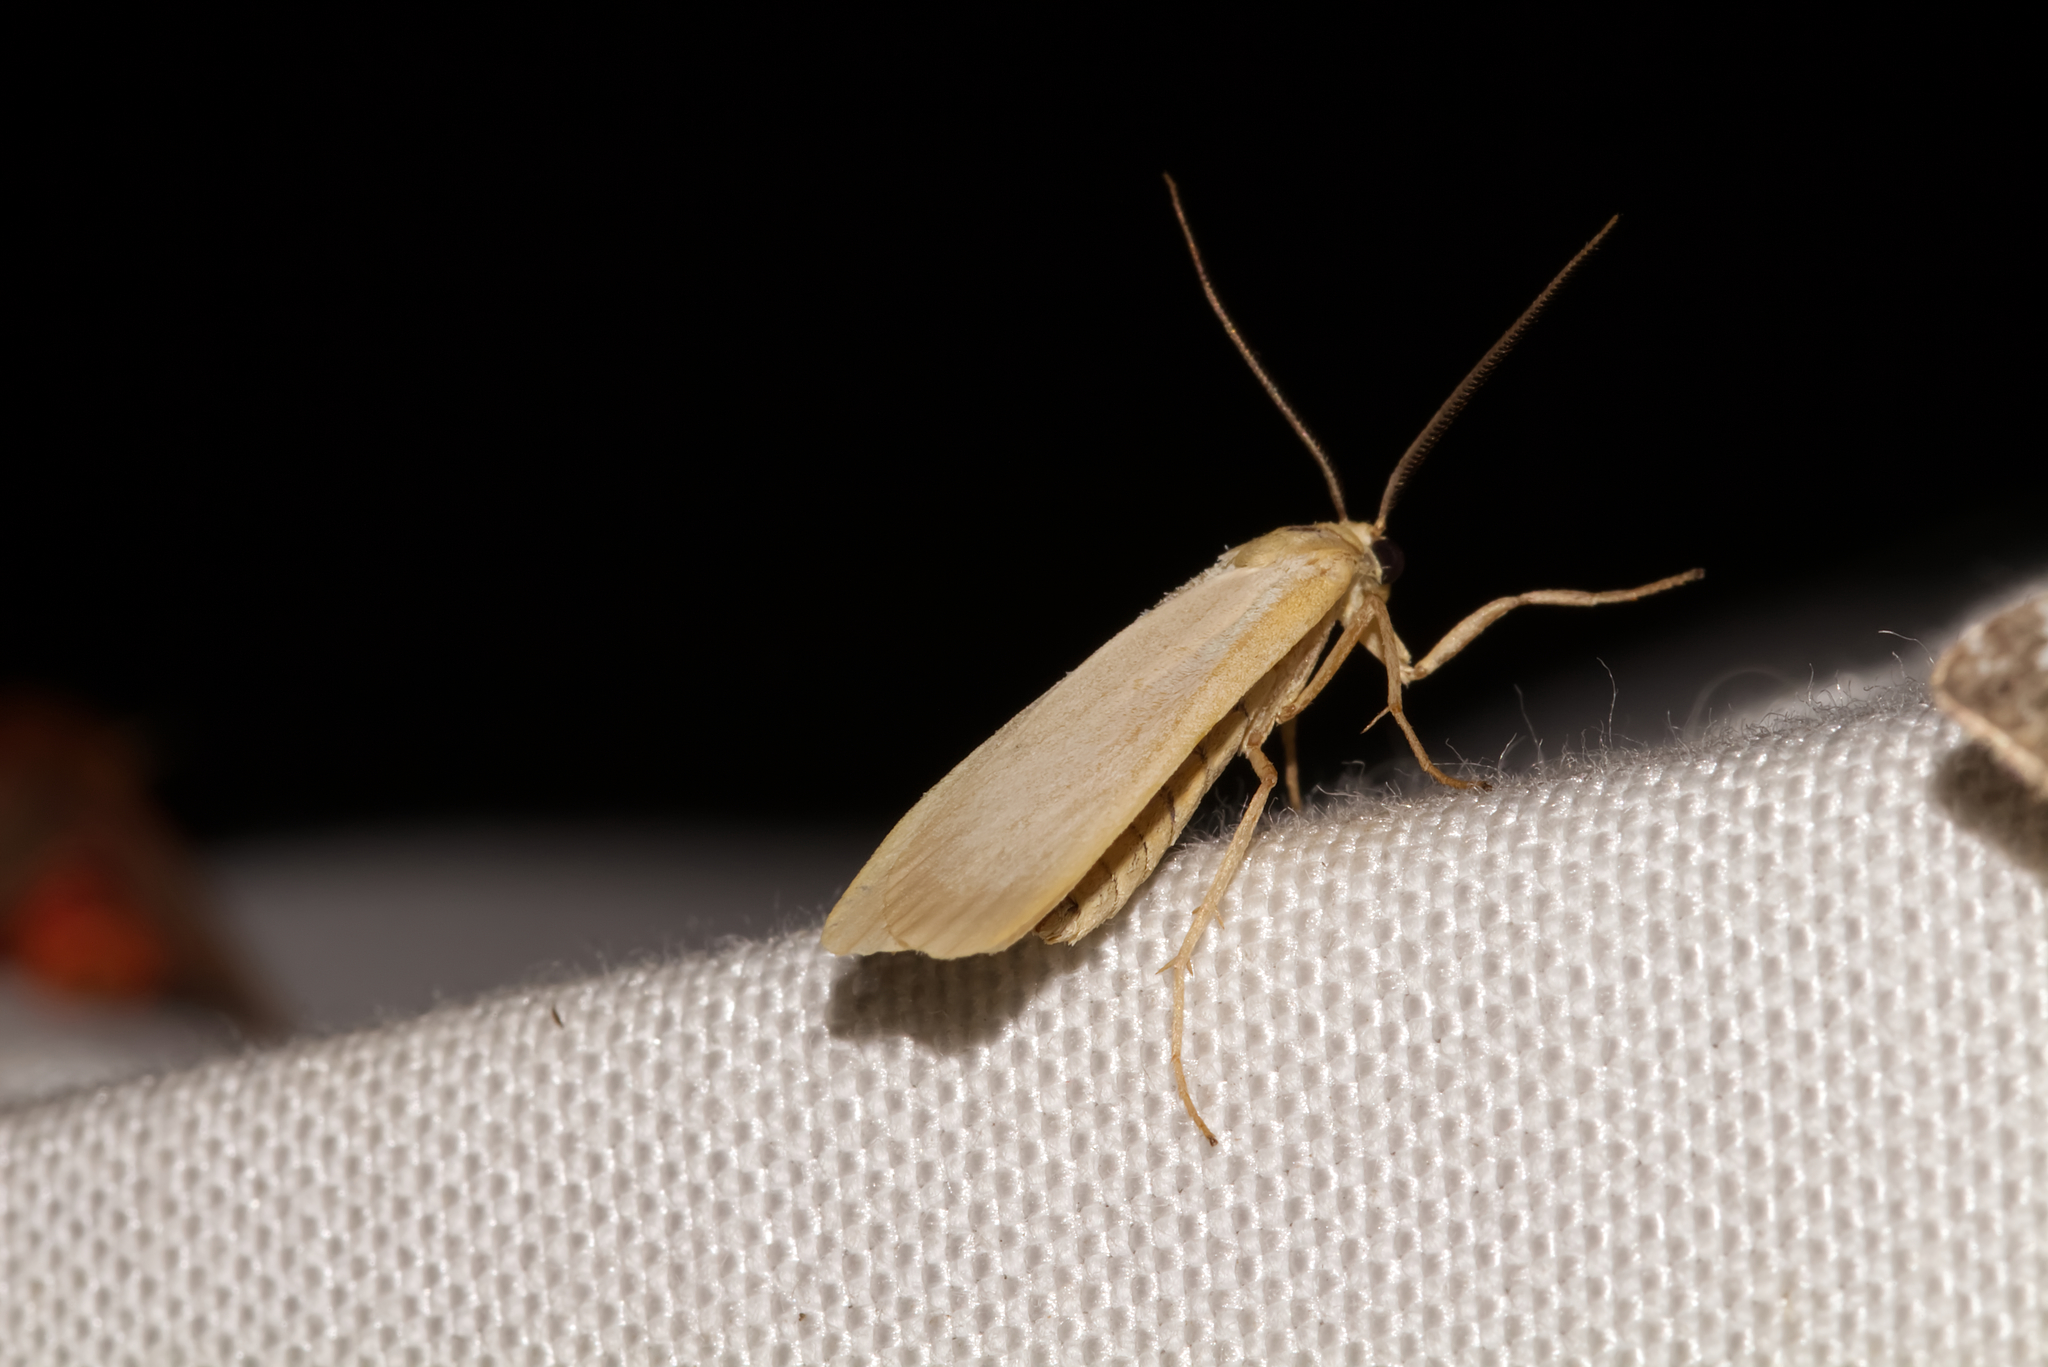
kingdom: Animalia
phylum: Arthropoda
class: Insecta
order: Lepidoptera
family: Erebidae
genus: Katha
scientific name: Katha depressa
